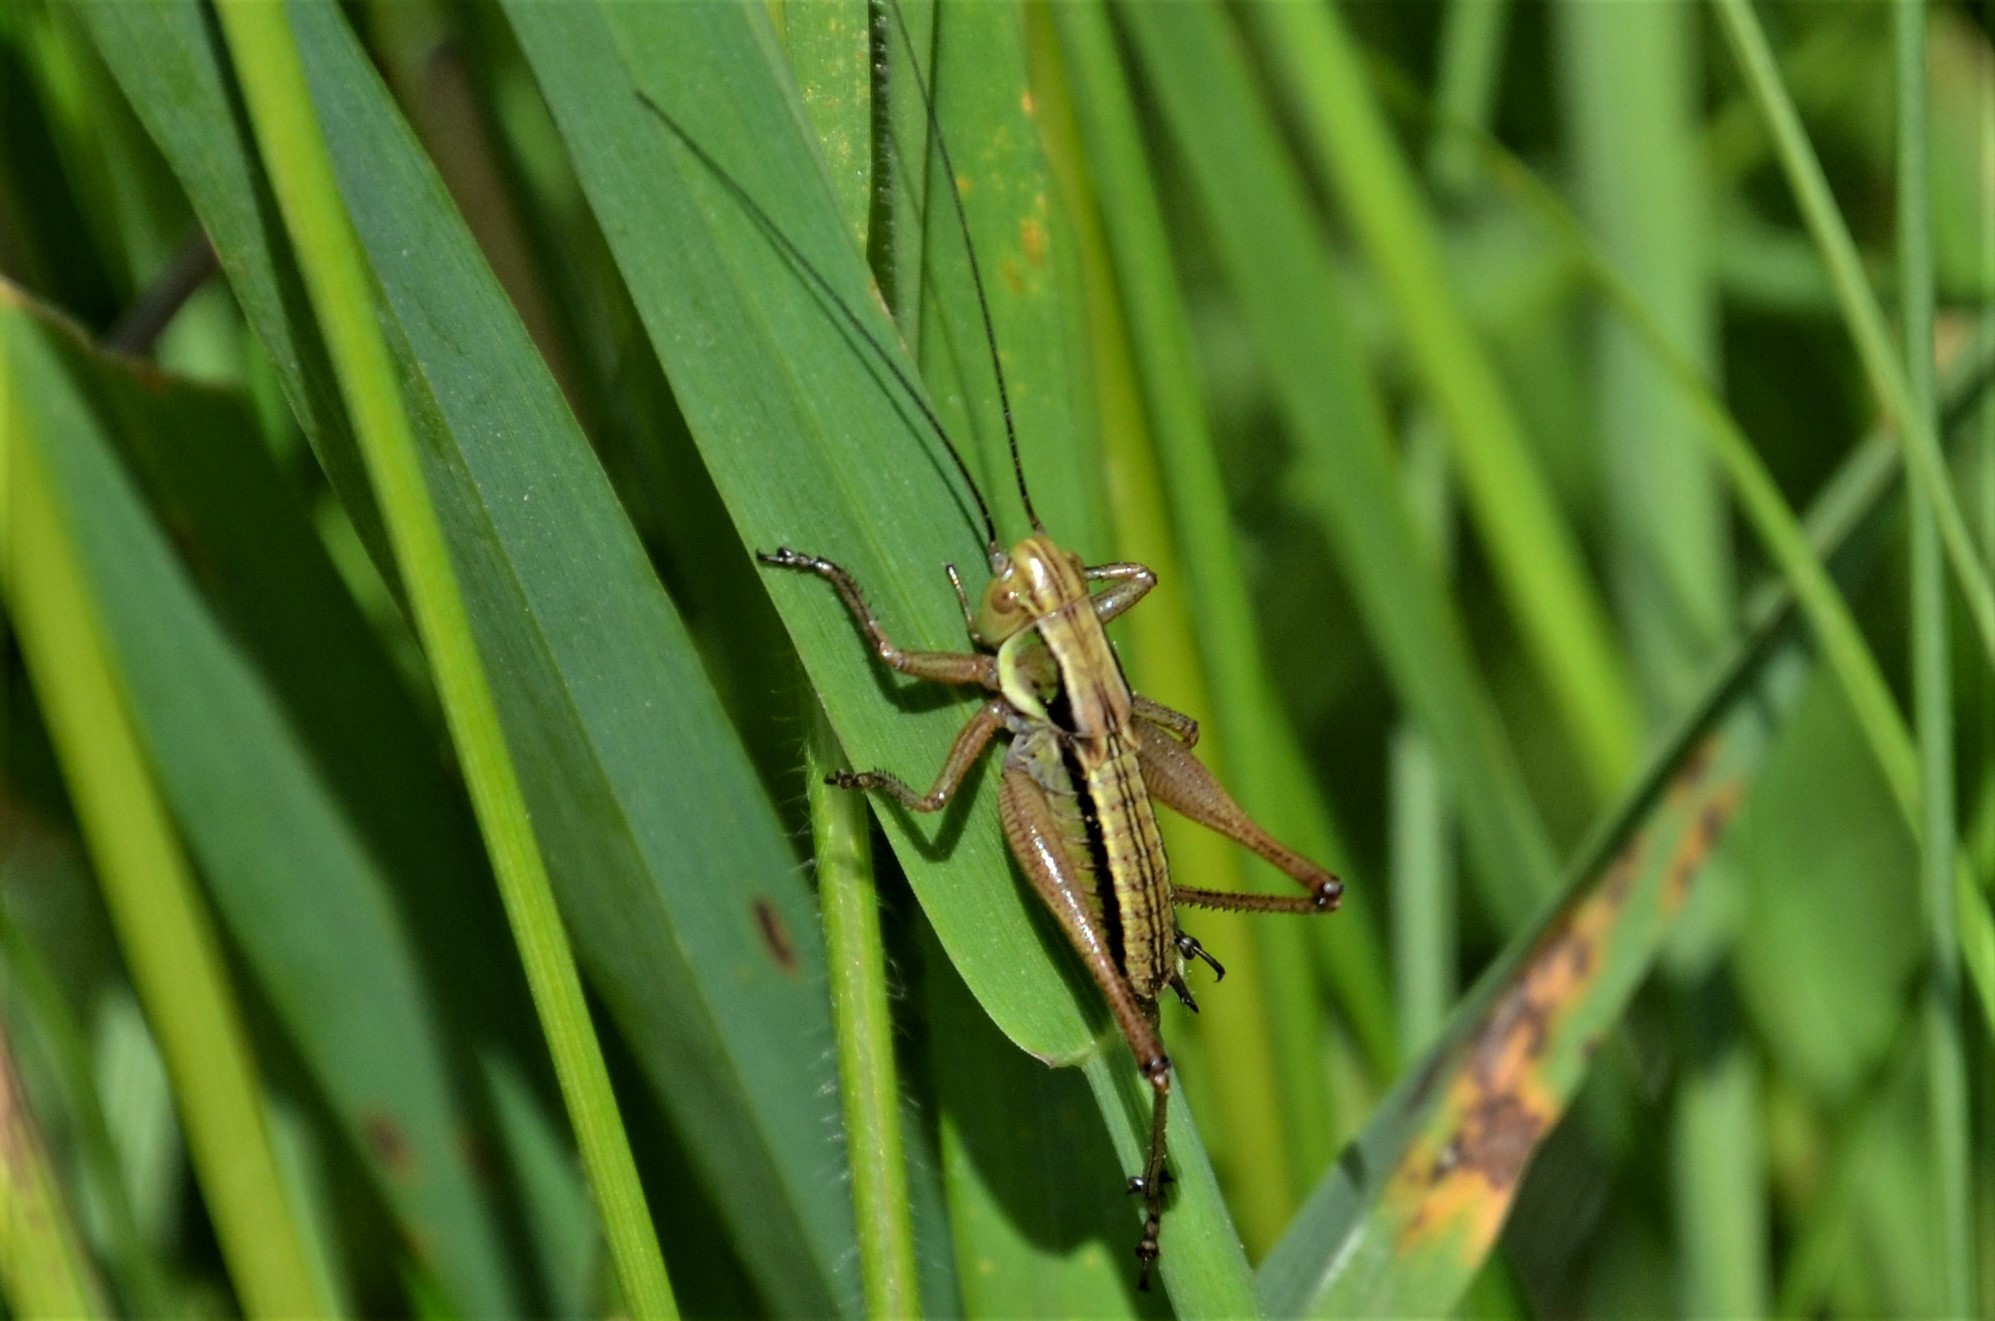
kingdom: Animalia
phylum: Arthropoda
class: Insecta
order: Orthoptera
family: Tettigoniidae
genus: Roeseliana
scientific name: Roeseliana roeselii
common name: Roesel's bush cricket
